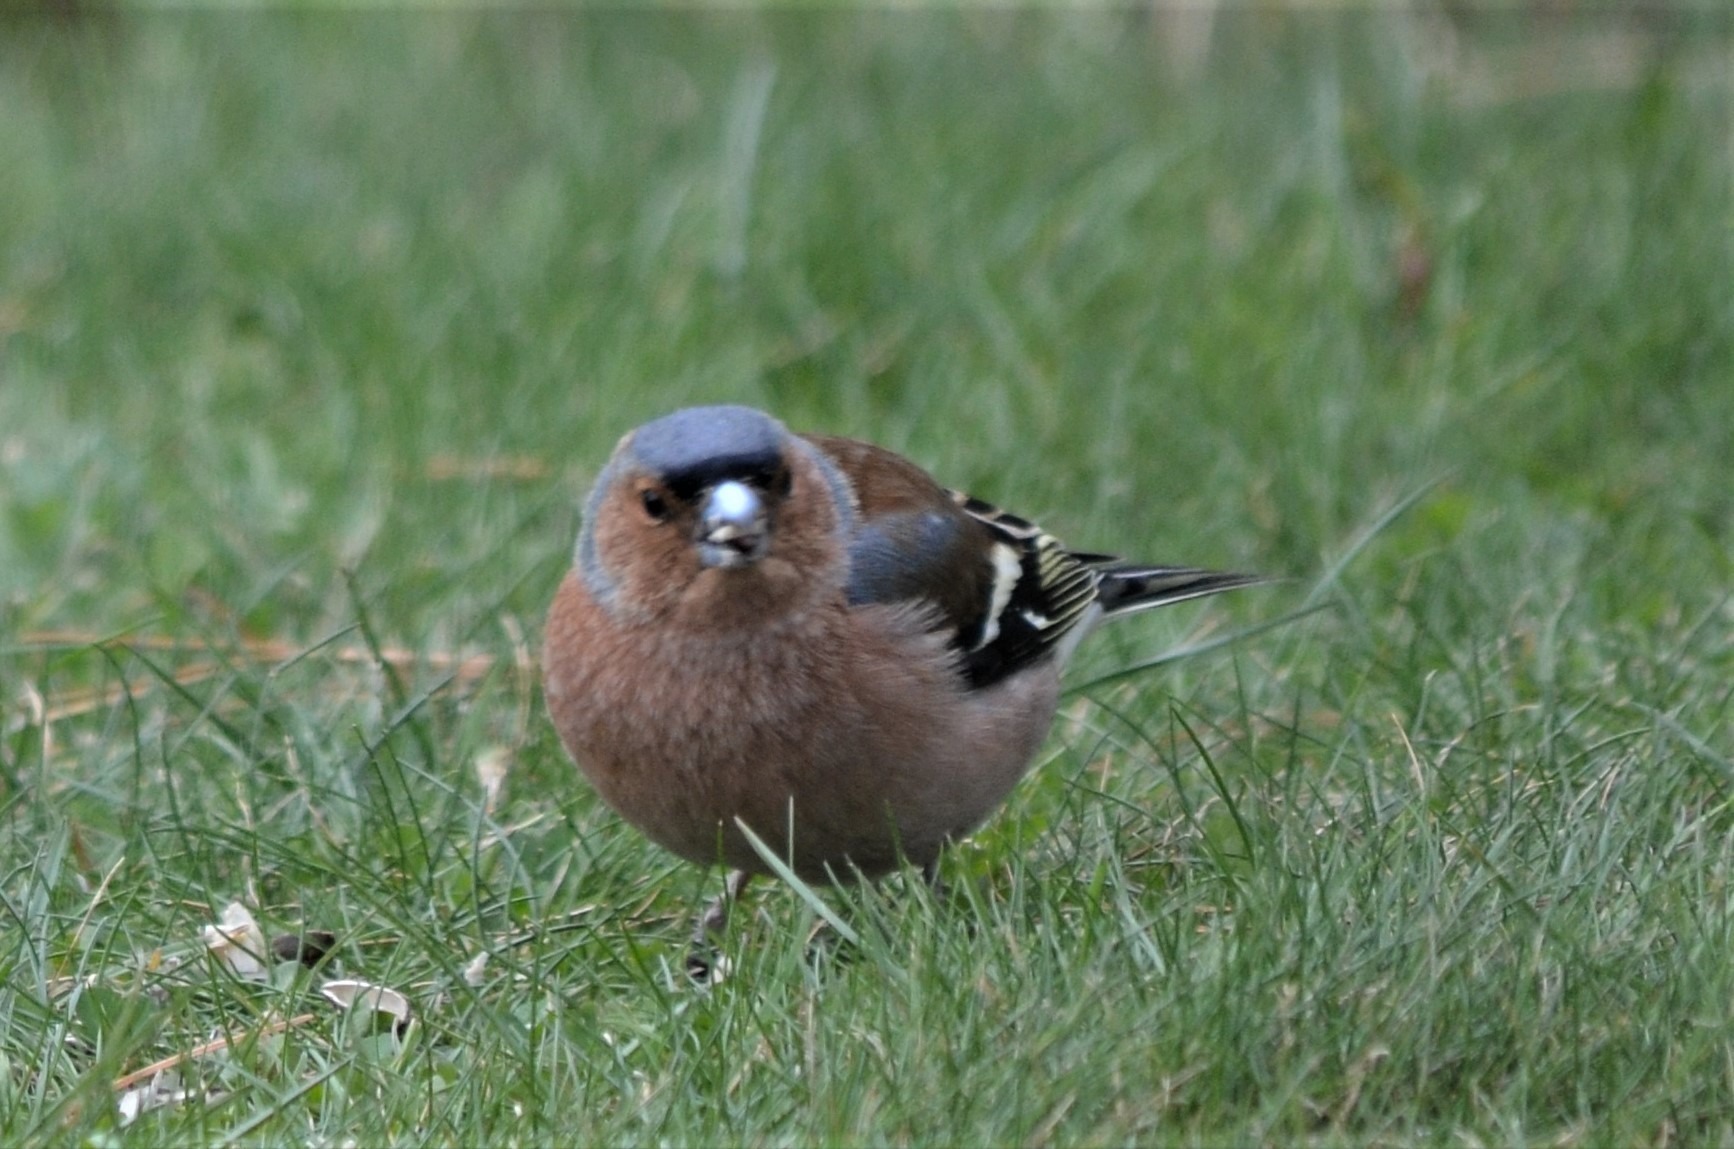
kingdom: Animalia
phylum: Chordata
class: Aves
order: Passeriformes
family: Fringillidae
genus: Fringilla
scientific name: Fringilla coelebs
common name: Common chaffinch
